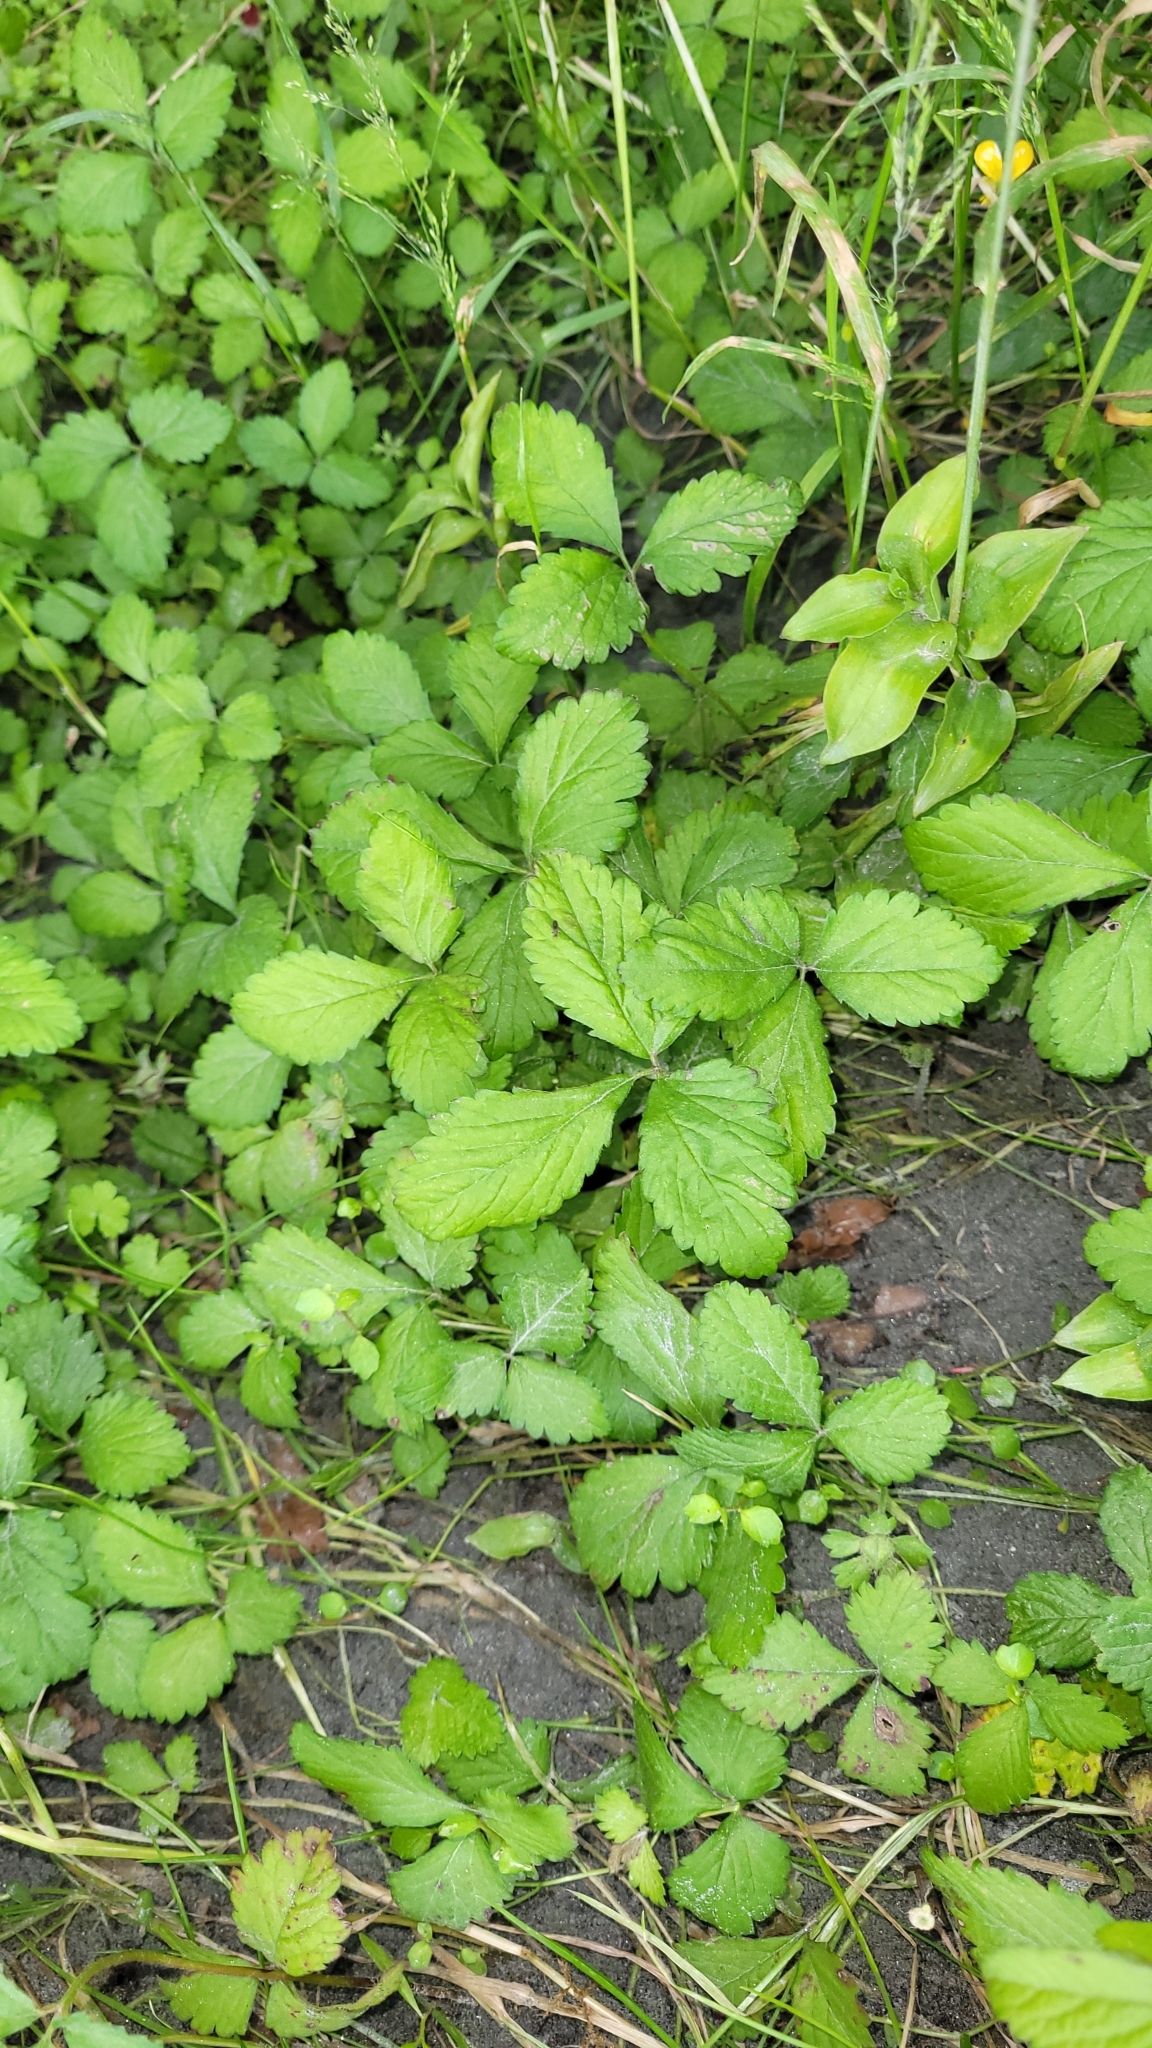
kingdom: Plantae
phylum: Tracheophyta
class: Magnoliopsida
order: Rosales
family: Rosaceae
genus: Potentilla
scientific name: Potentilla indica
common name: Yellow-flowered strawberry
